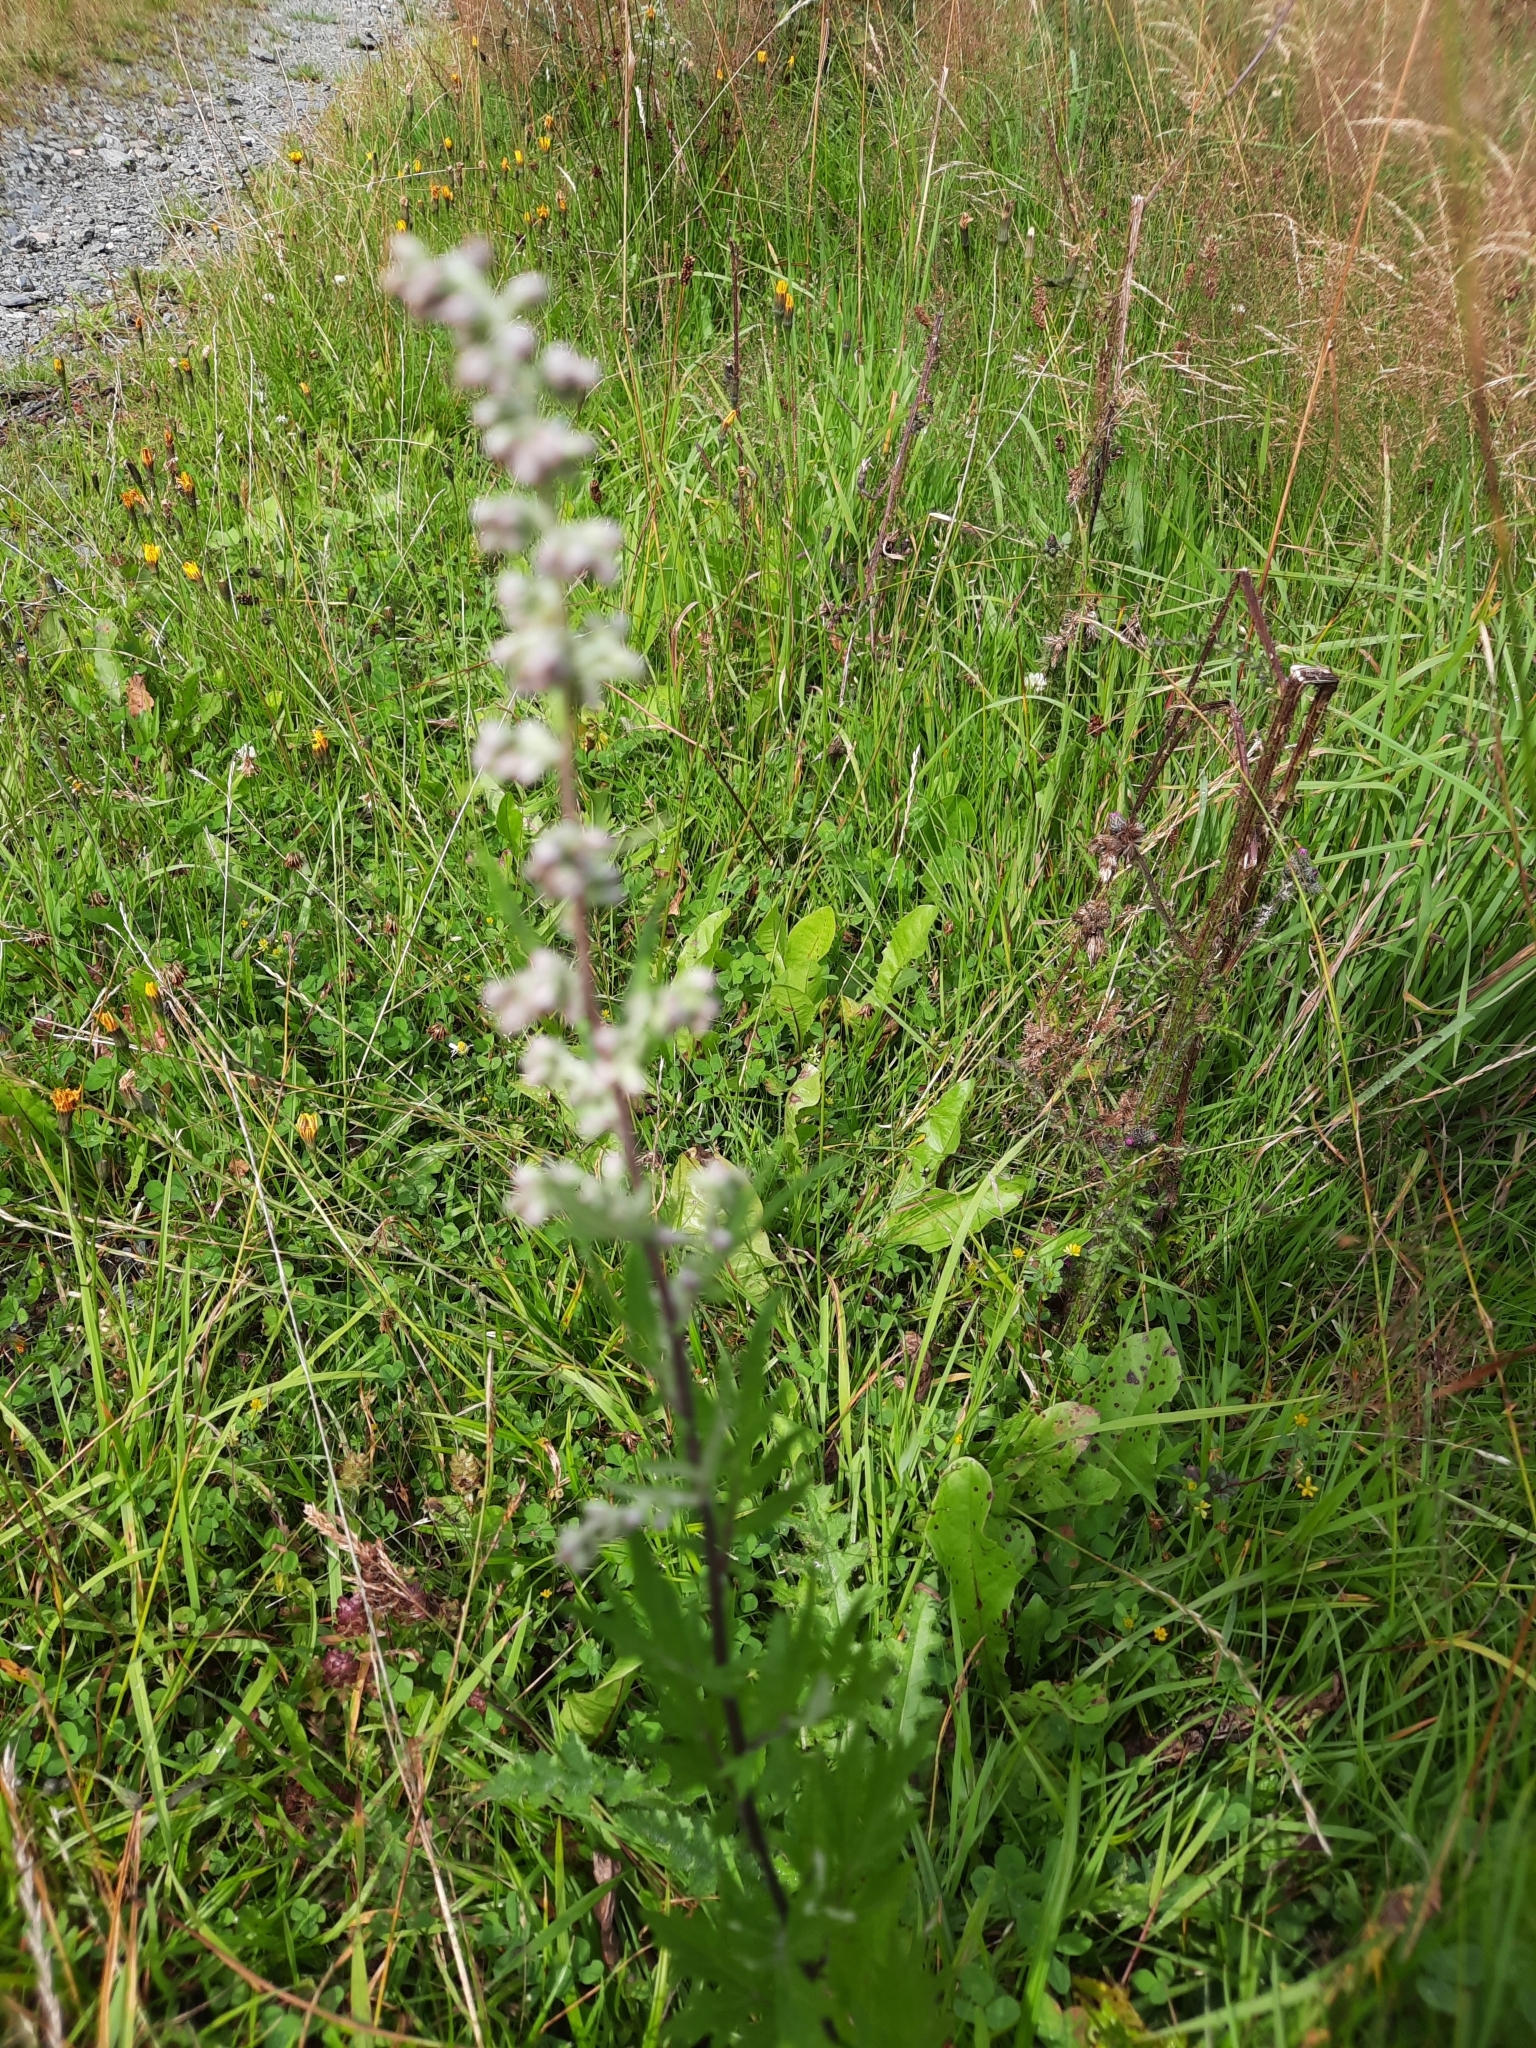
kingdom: Plantae
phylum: Tracheophyta
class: Magnoliopsida
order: Asterales
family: Asteraceae
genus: Artemisia
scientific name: Artemisia vulgaris
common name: Mugwort
